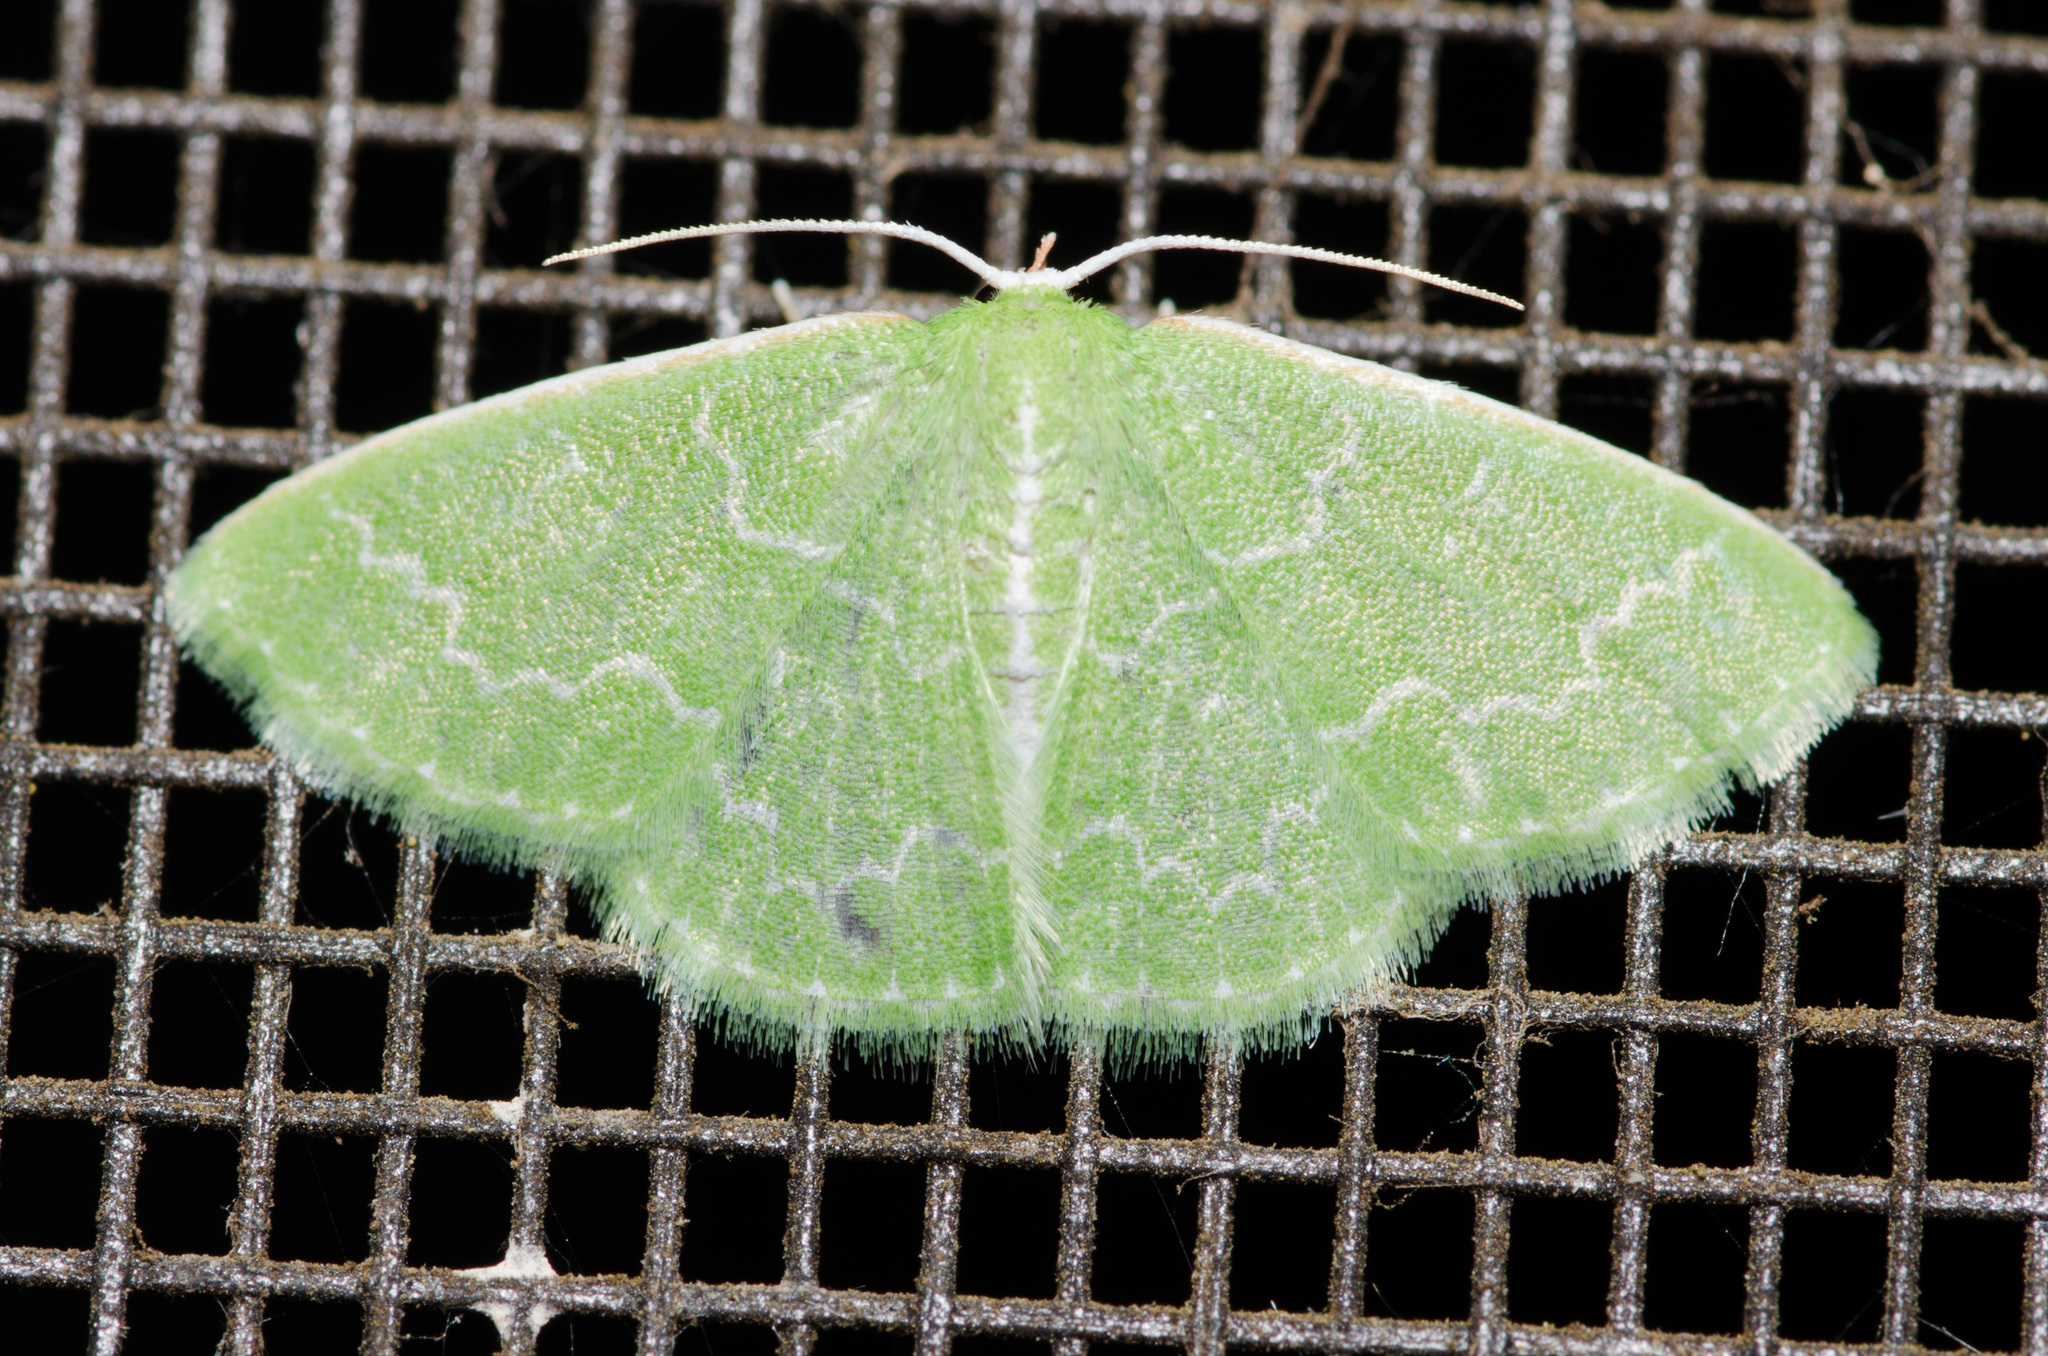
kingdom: Animalia
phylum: Arthropoda
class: Insecta
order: Lepidoptera
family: Geometridae
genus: Synchlora
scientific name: Synchlora frondaria
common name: Southern emerald
